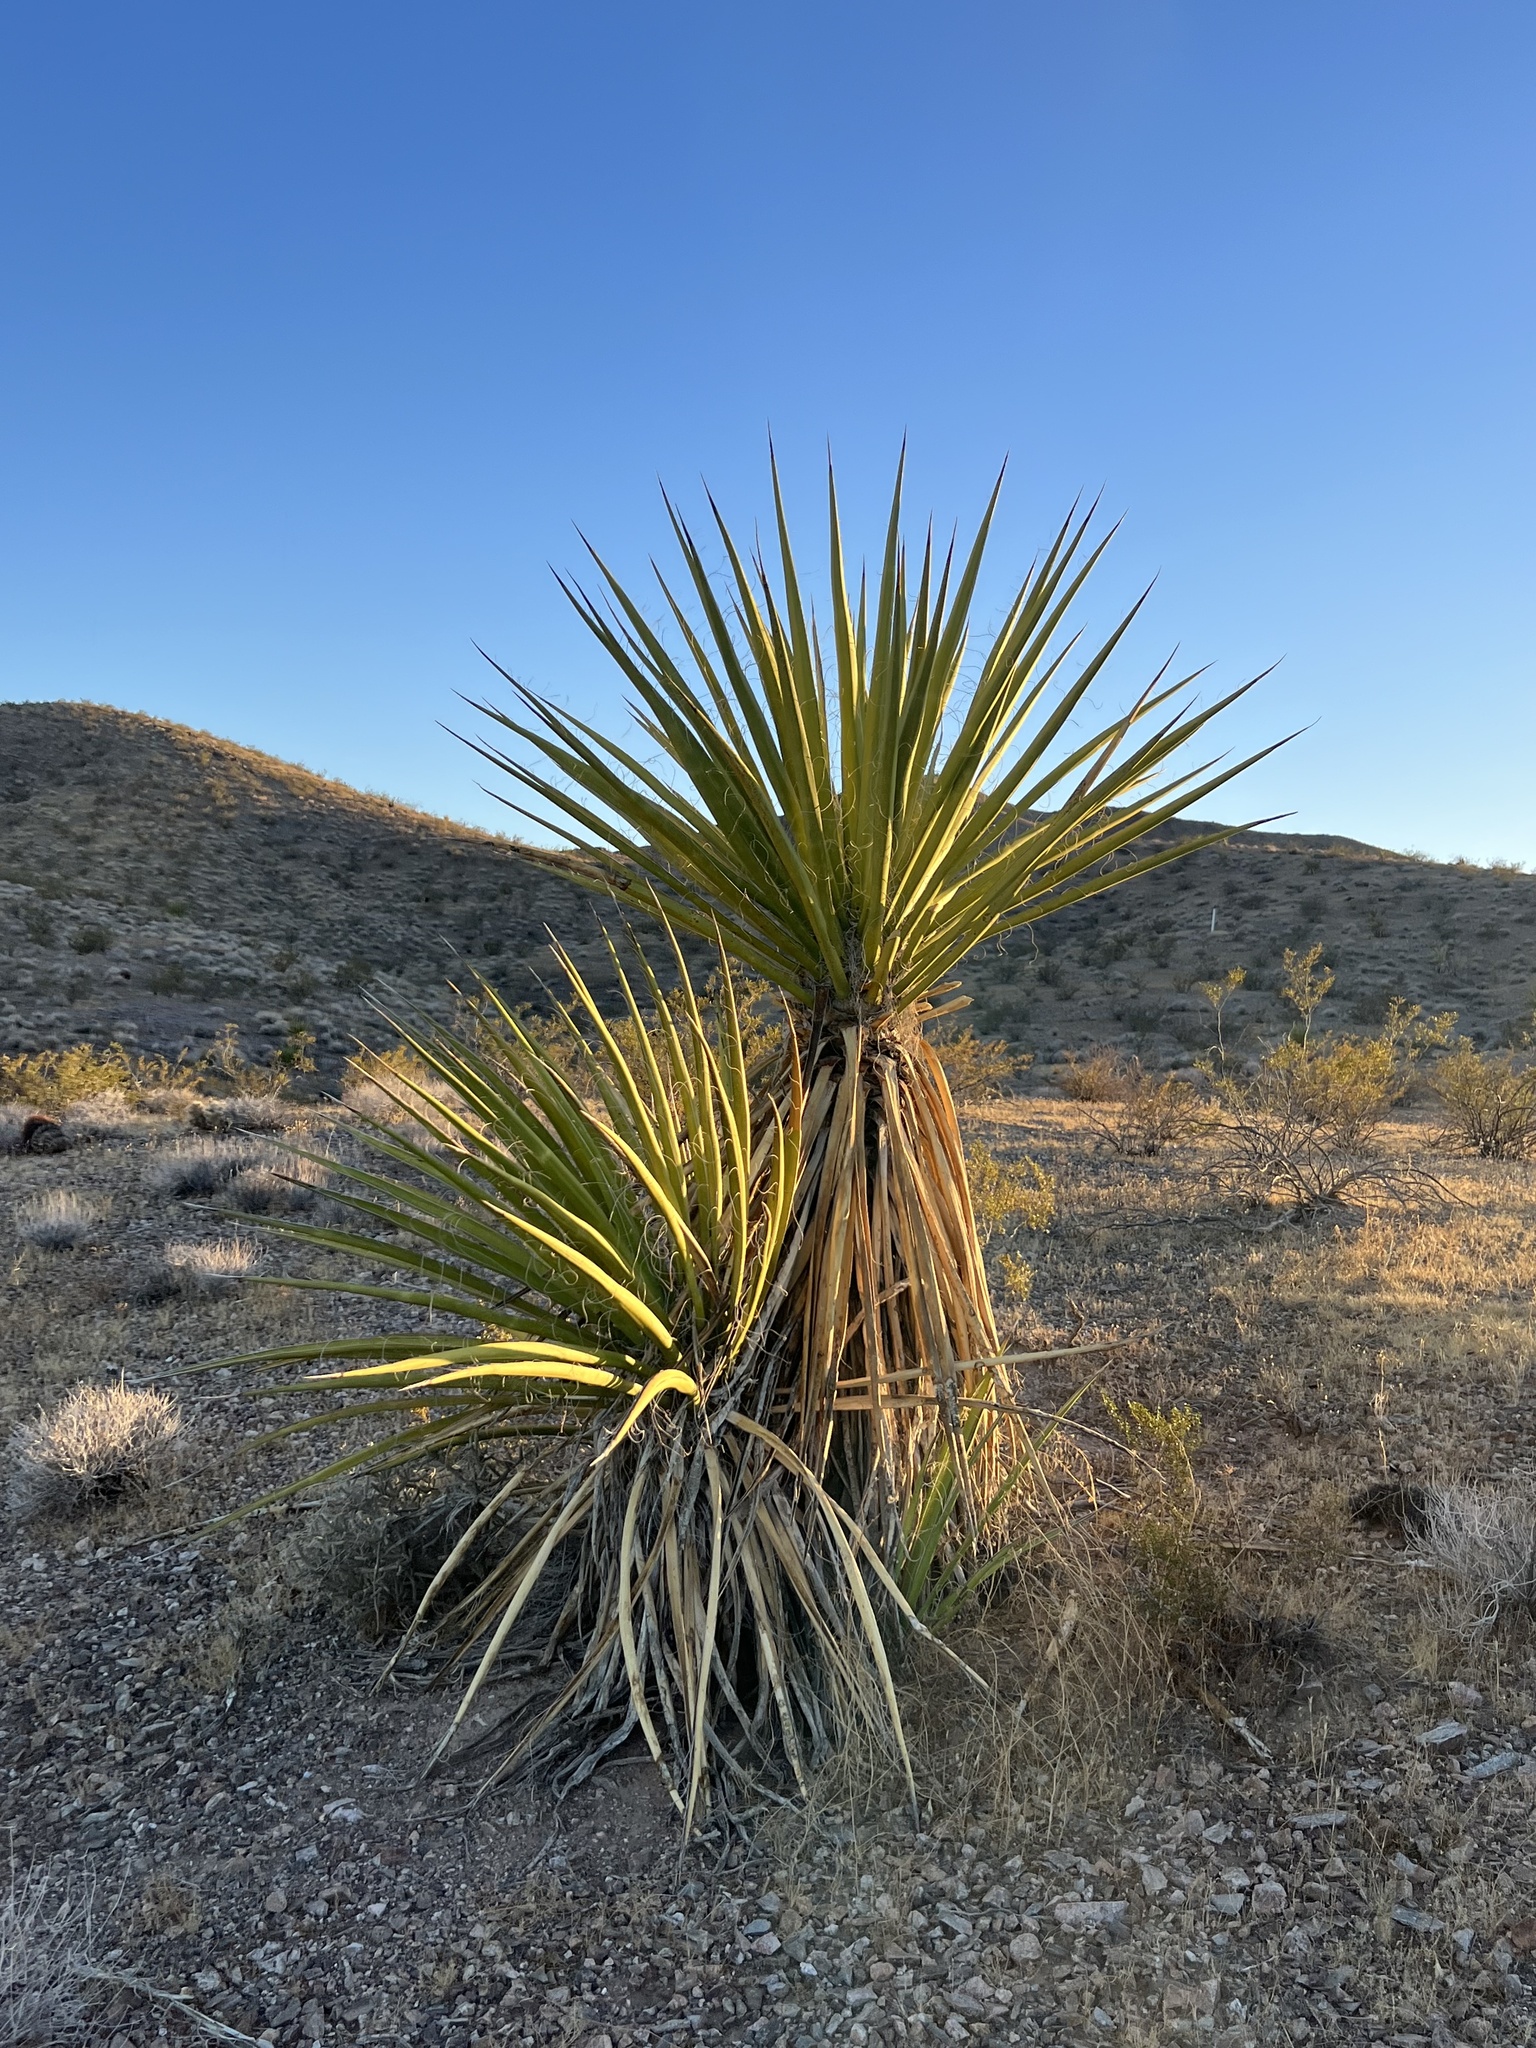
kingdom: Plantae
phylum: Tracheophyta
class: Liliopsida
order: Asparagales
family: Asparagaceae
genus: Yucca
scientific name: Yucca schidigera
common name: Mojave yucca
